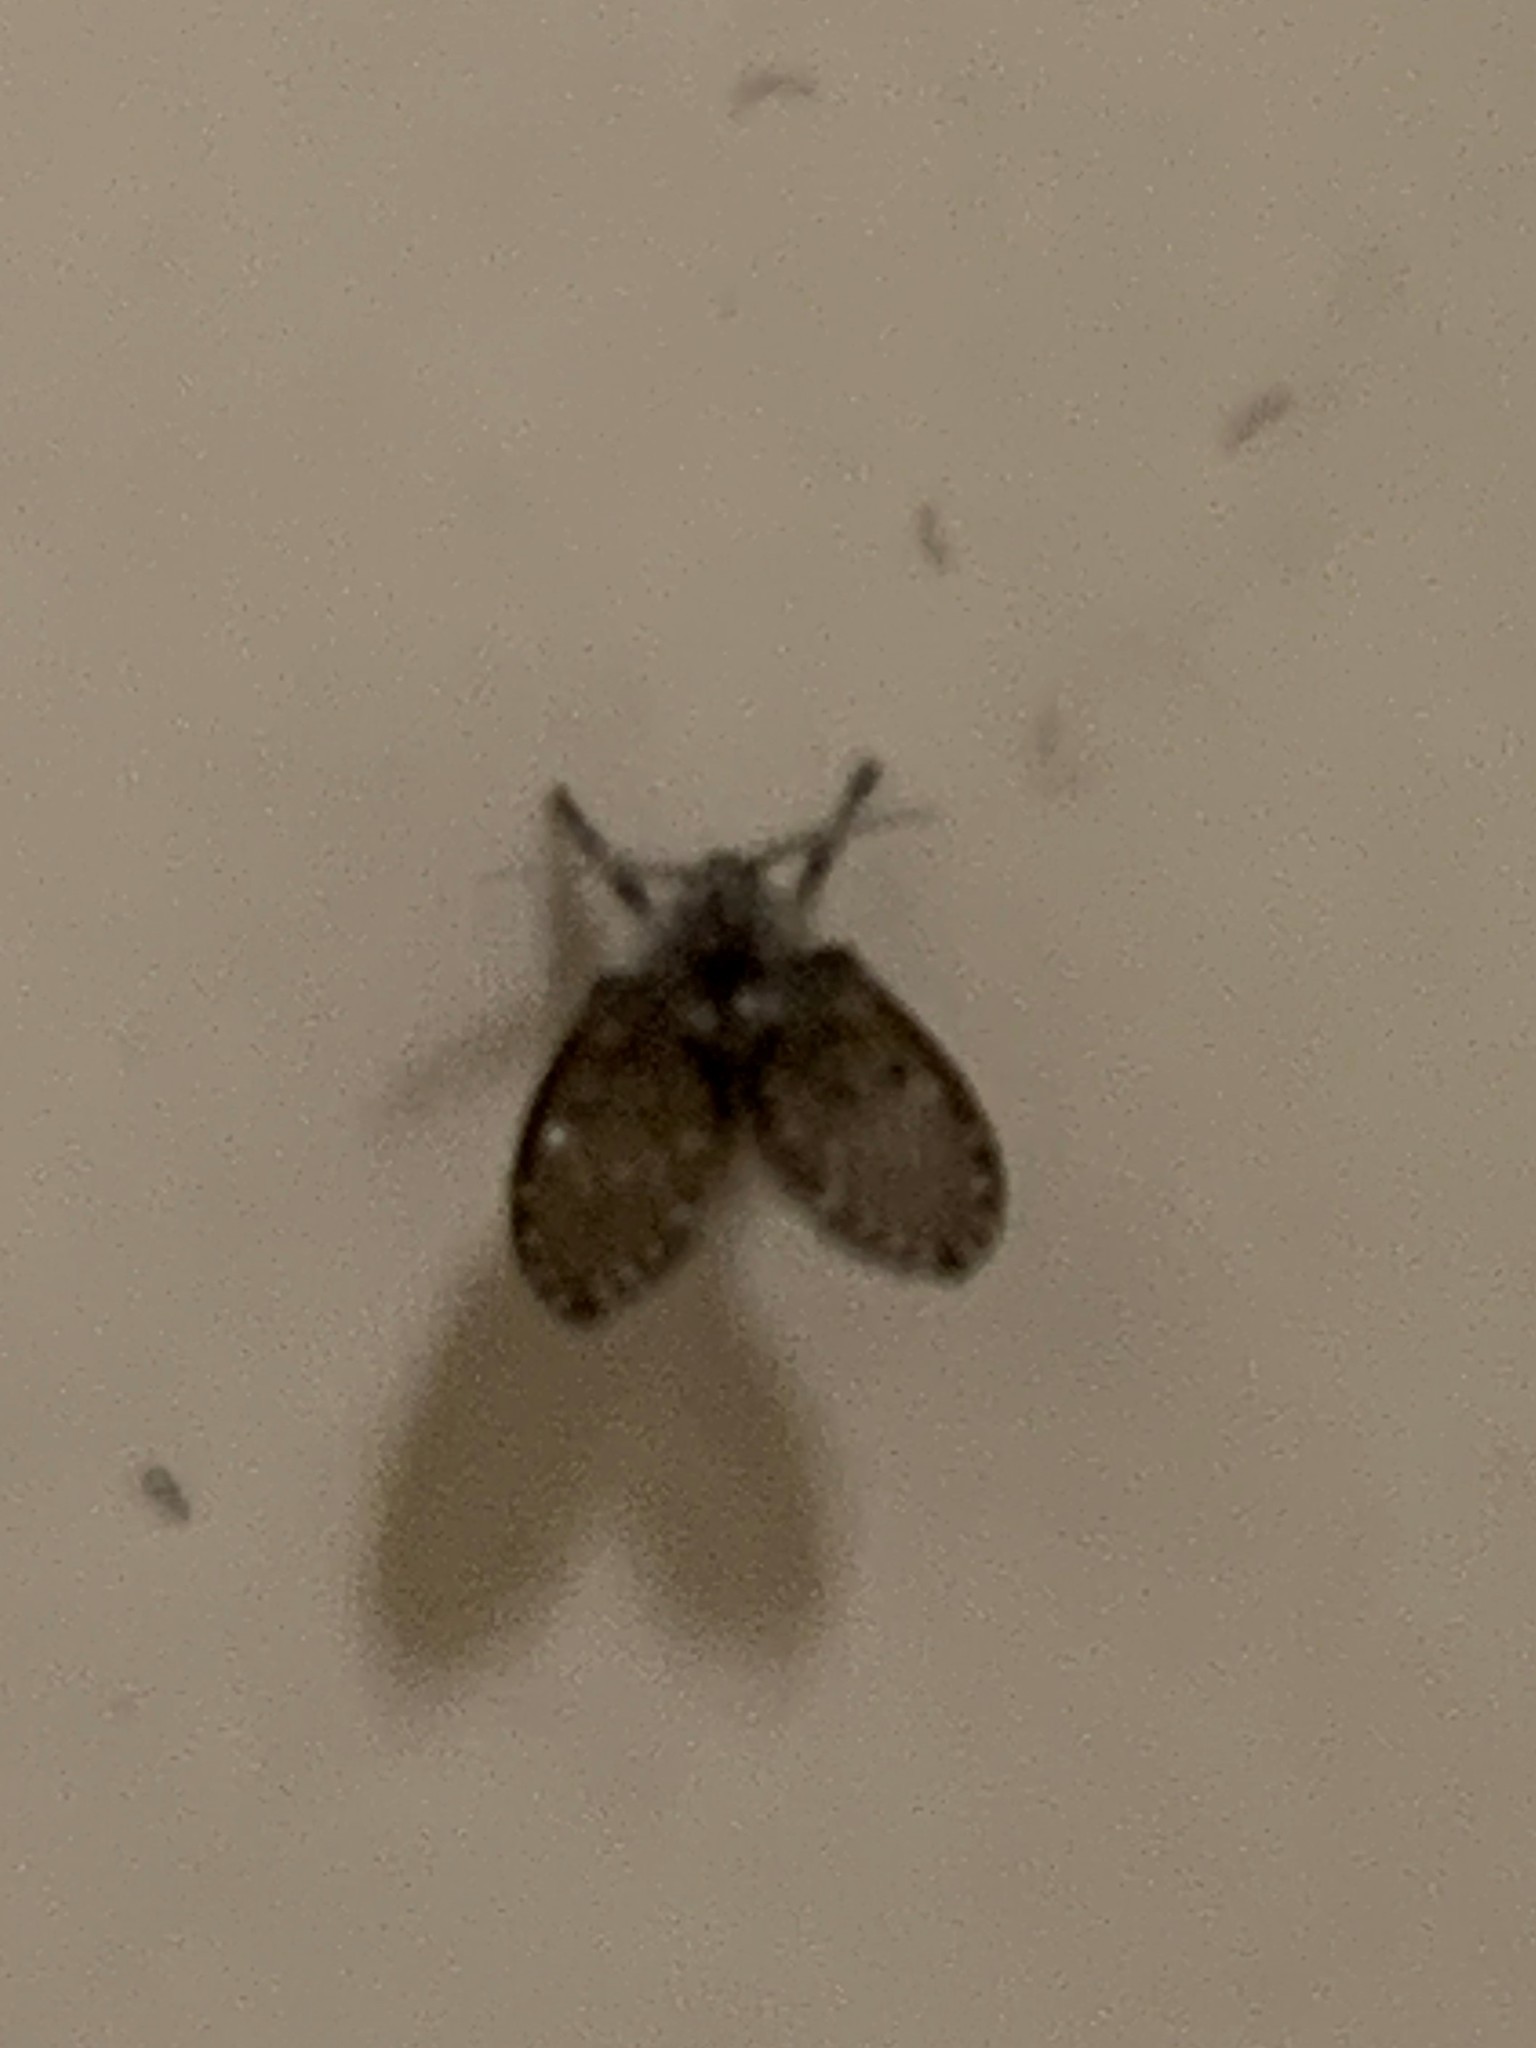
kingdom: Animalia
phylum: Arthropoda
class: Insecta
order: Diptera
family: Psychodidae
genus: Clogmia
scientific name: Clogmia albipunctatus
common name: White-spotted moth fly
